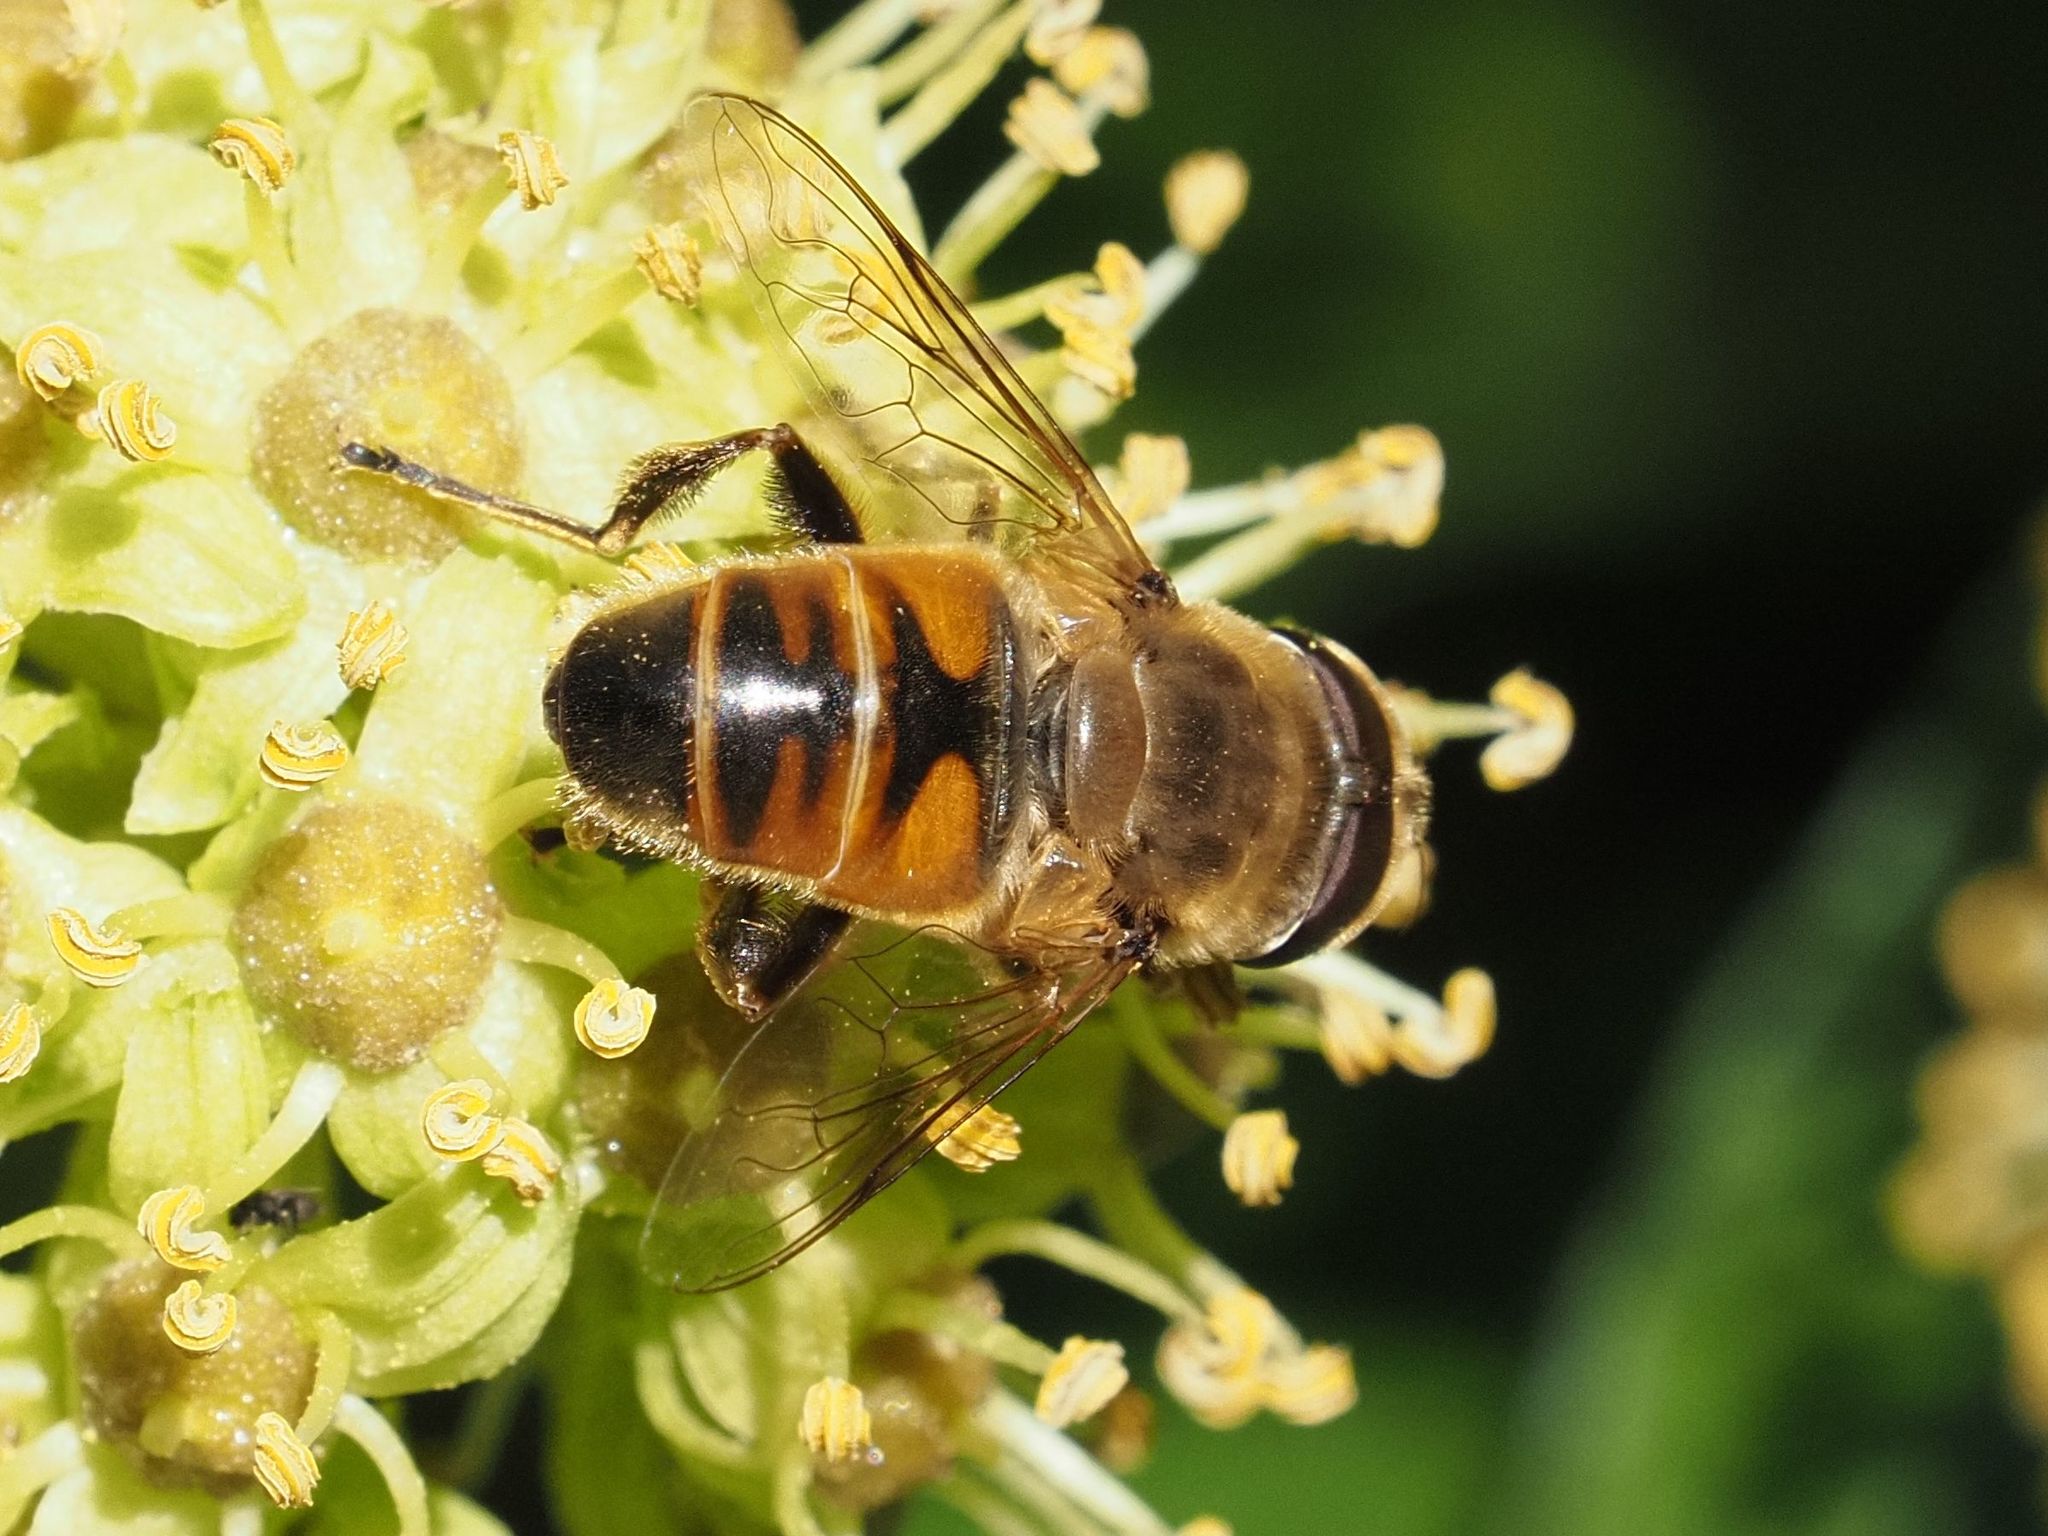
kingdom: Animalia
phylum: Arthropoda
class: Insecta
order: Diptera
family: Syrphidae
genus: Eristalis
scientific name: Eristalis tenax
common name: Drone fly
